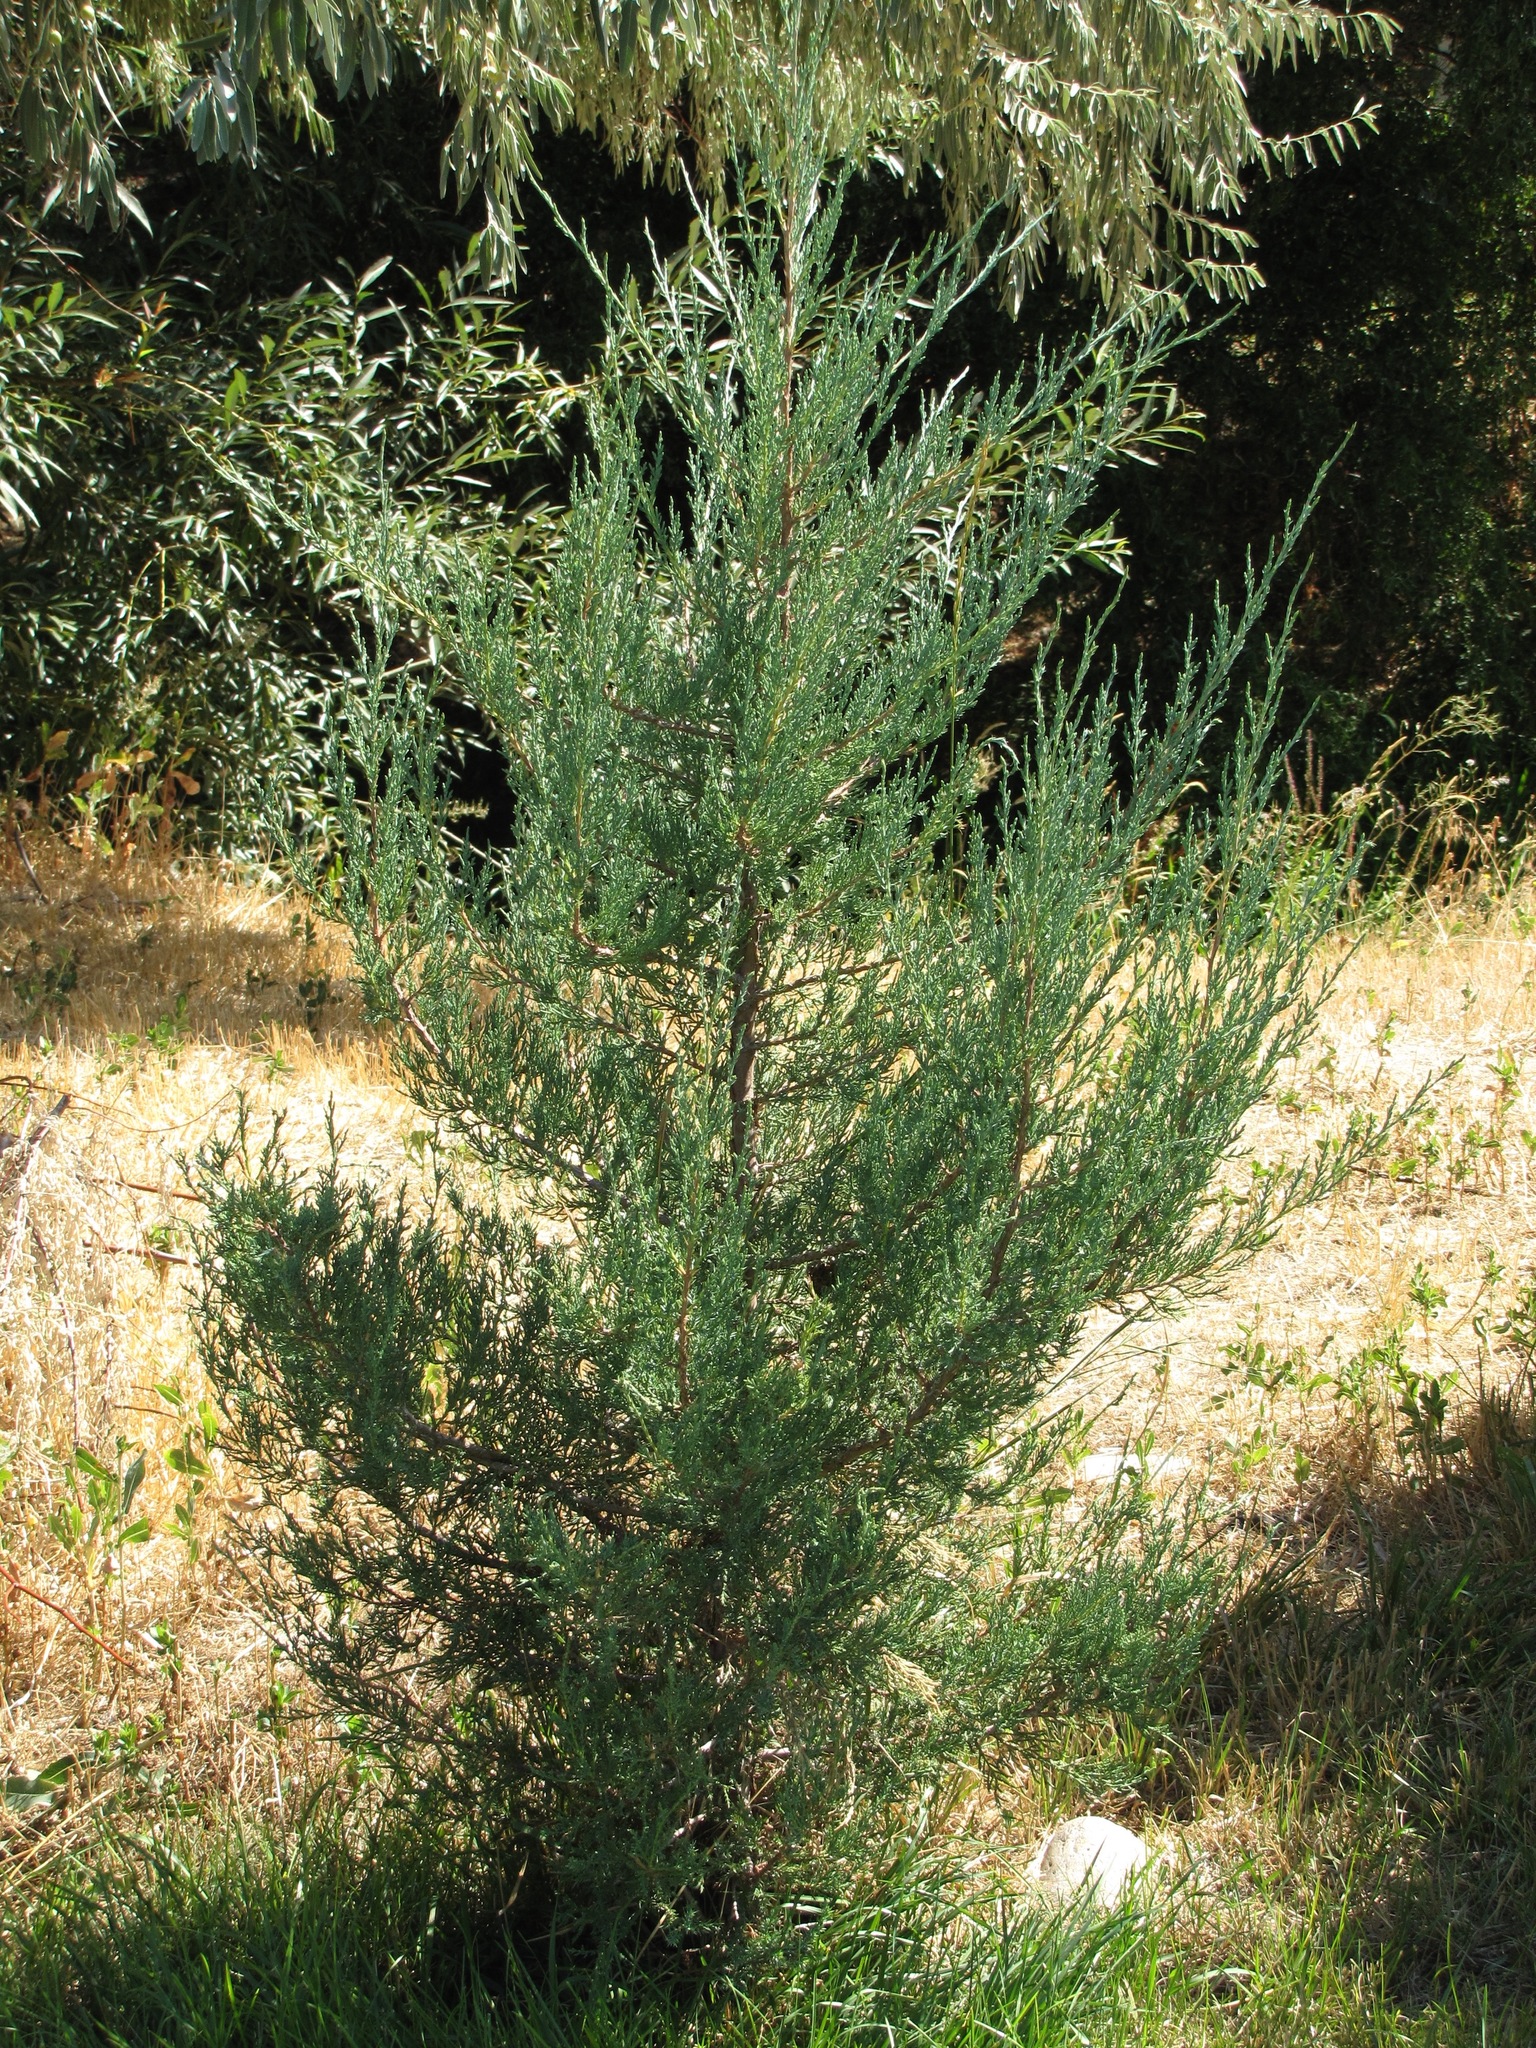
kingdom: Plantae
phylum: Tracheophyta
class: Pinopsida
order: Pinales
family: Cupressaceae
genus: Juniperus
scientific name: Juniperus scopulorum
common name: Rocky mountain juniper
